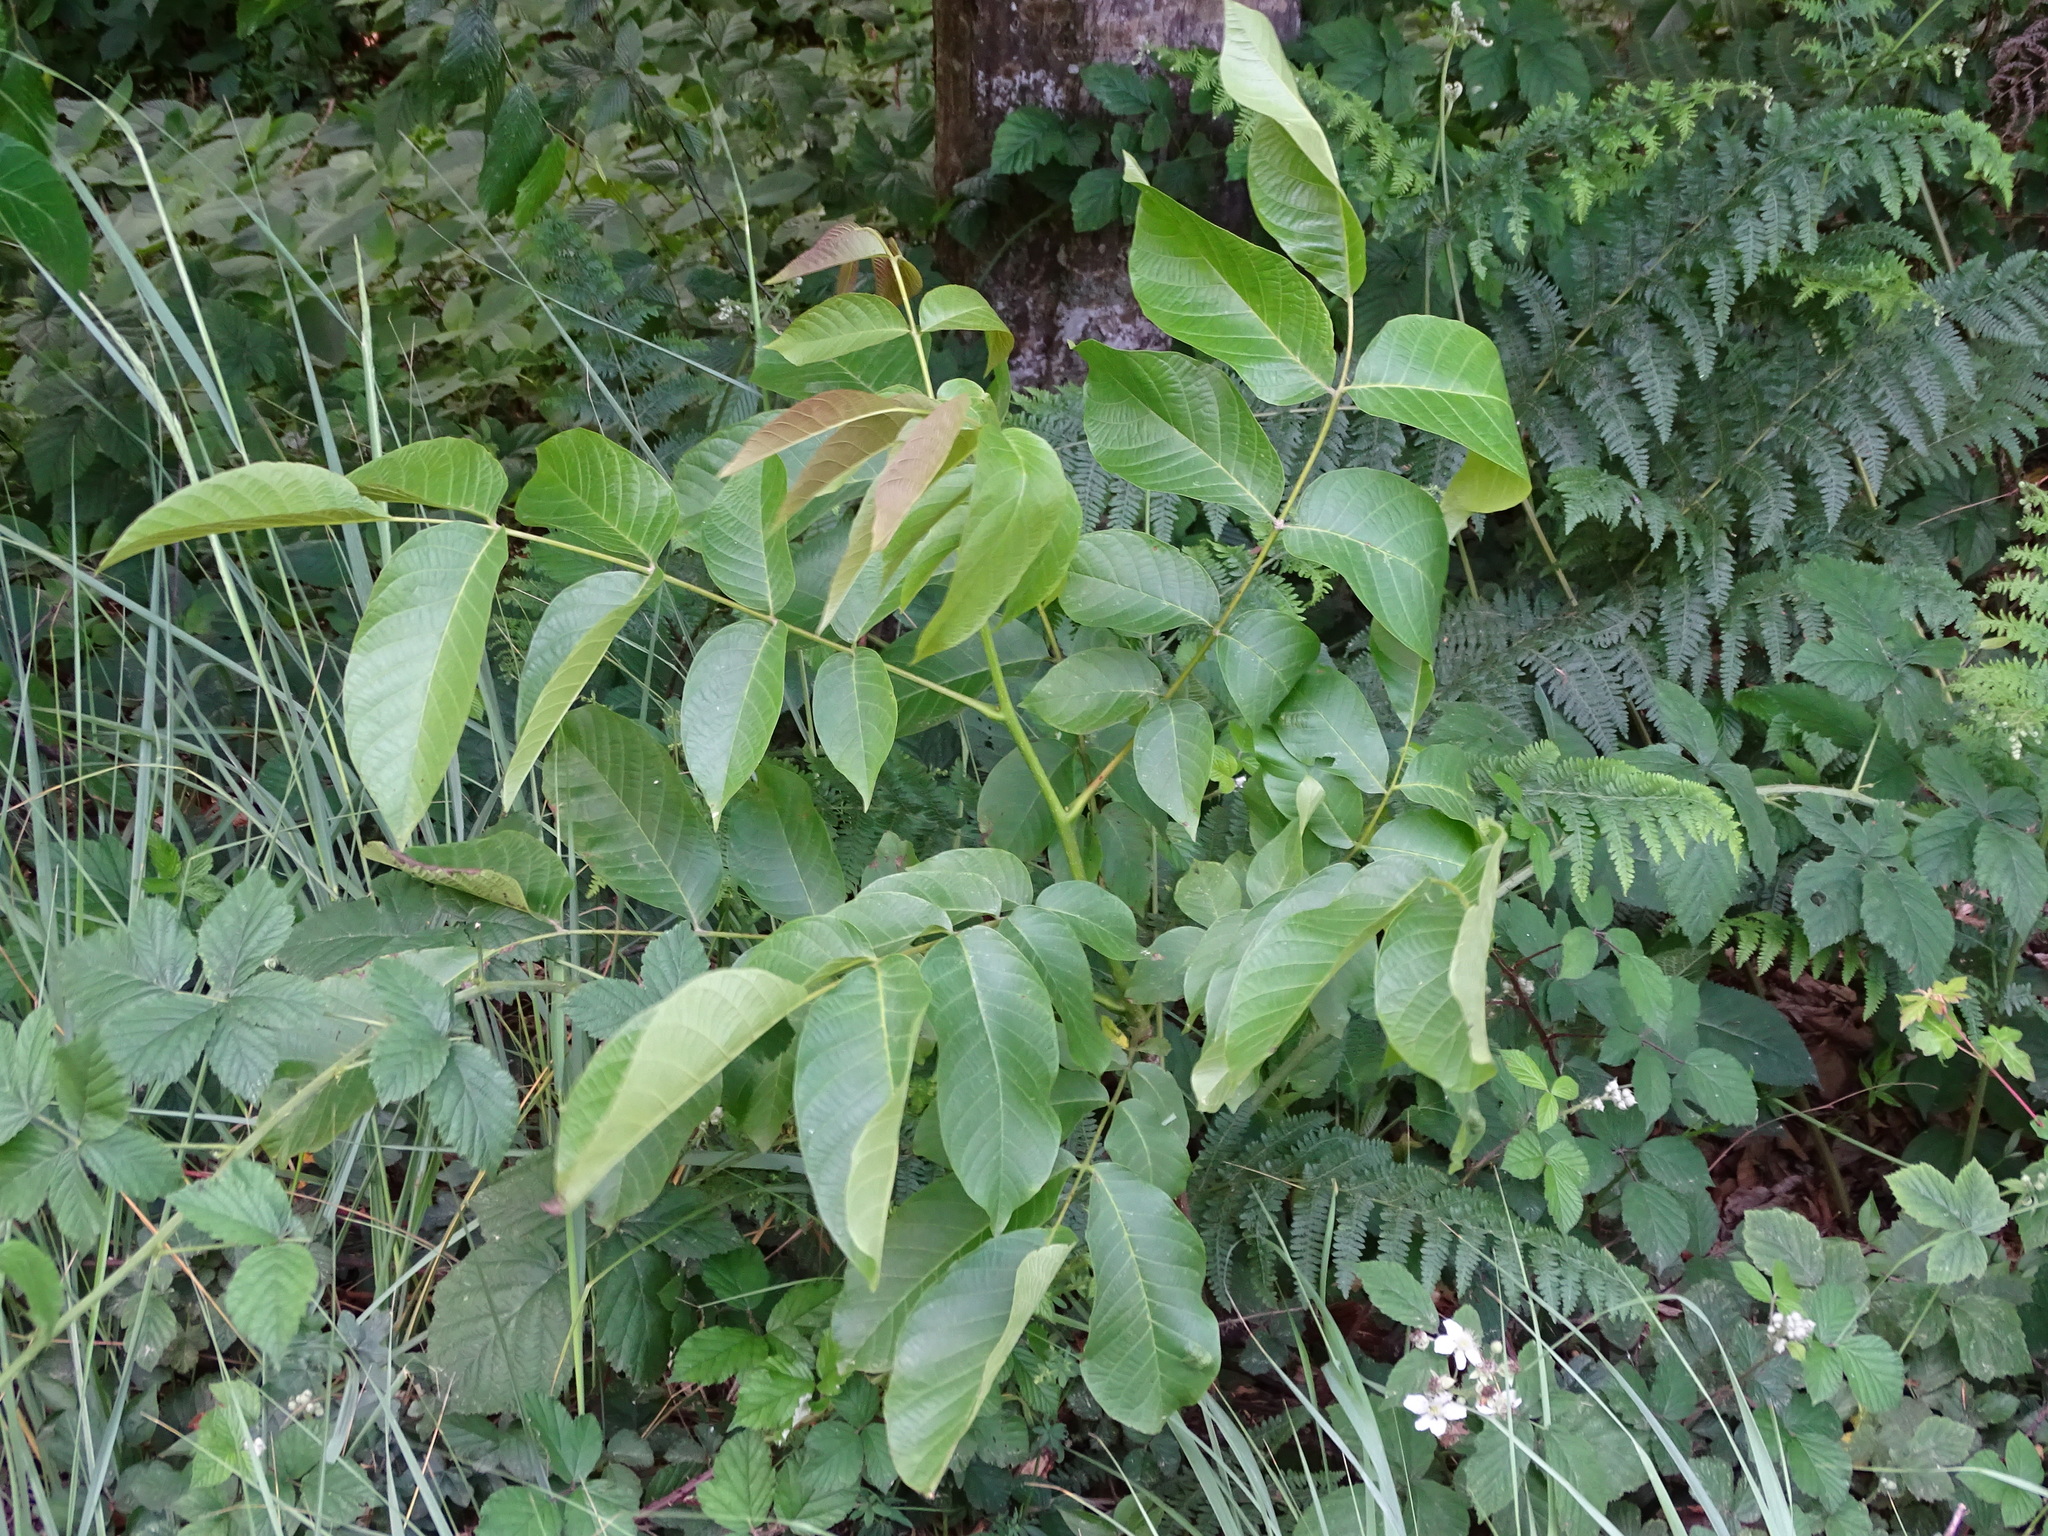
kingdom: Plantae
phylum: Tracheophyta
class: Magnoliopsida
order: Fagales
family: Juglandaceae
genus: Juglans
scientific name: Juglans regia
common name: Walnut
